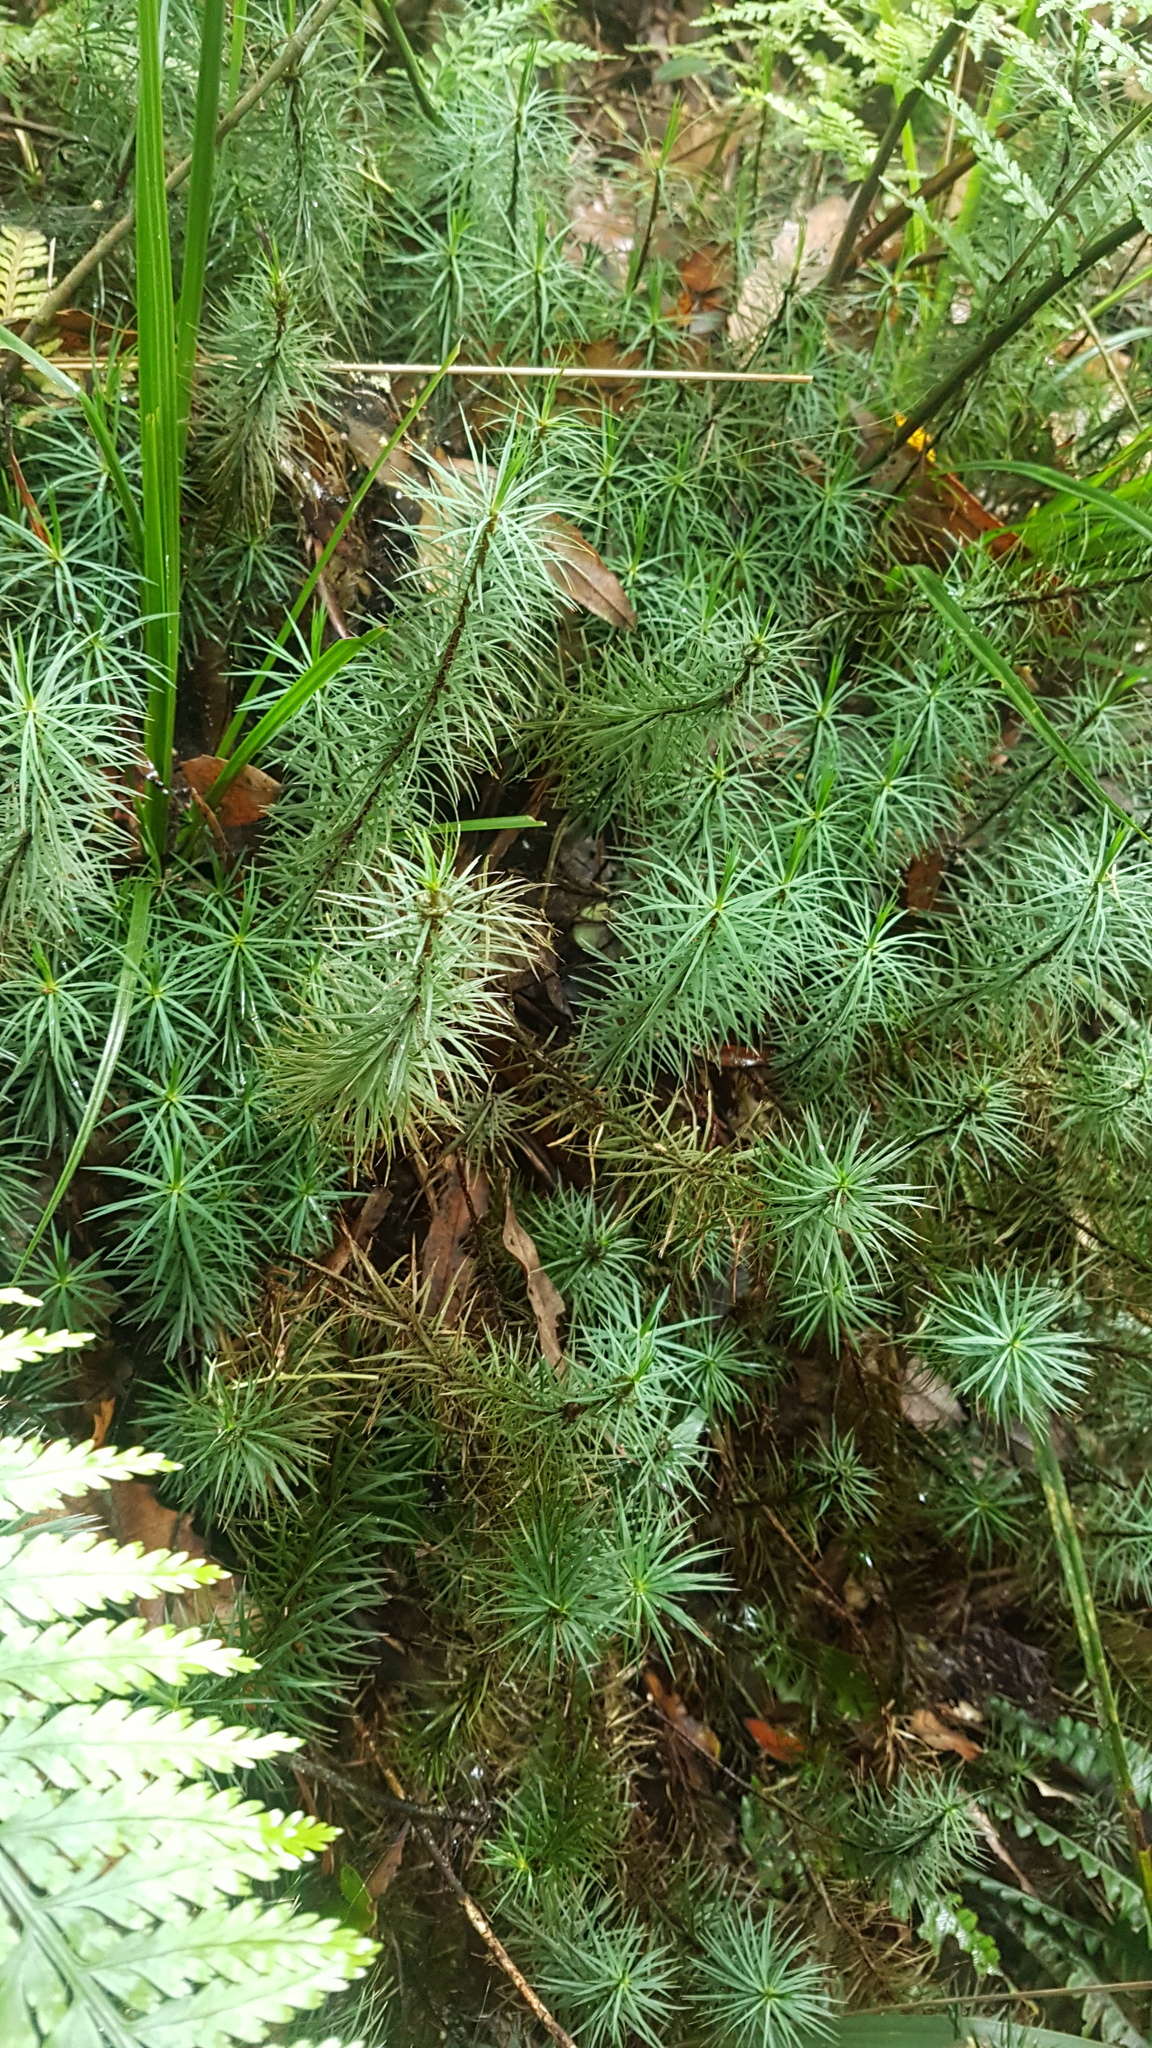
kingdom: Plantae
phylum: Bryophyta
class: Polytrichopsida
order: Polytrichales
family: Polytrichaceae
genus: Dawsonia
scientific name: Dawsonia superba
